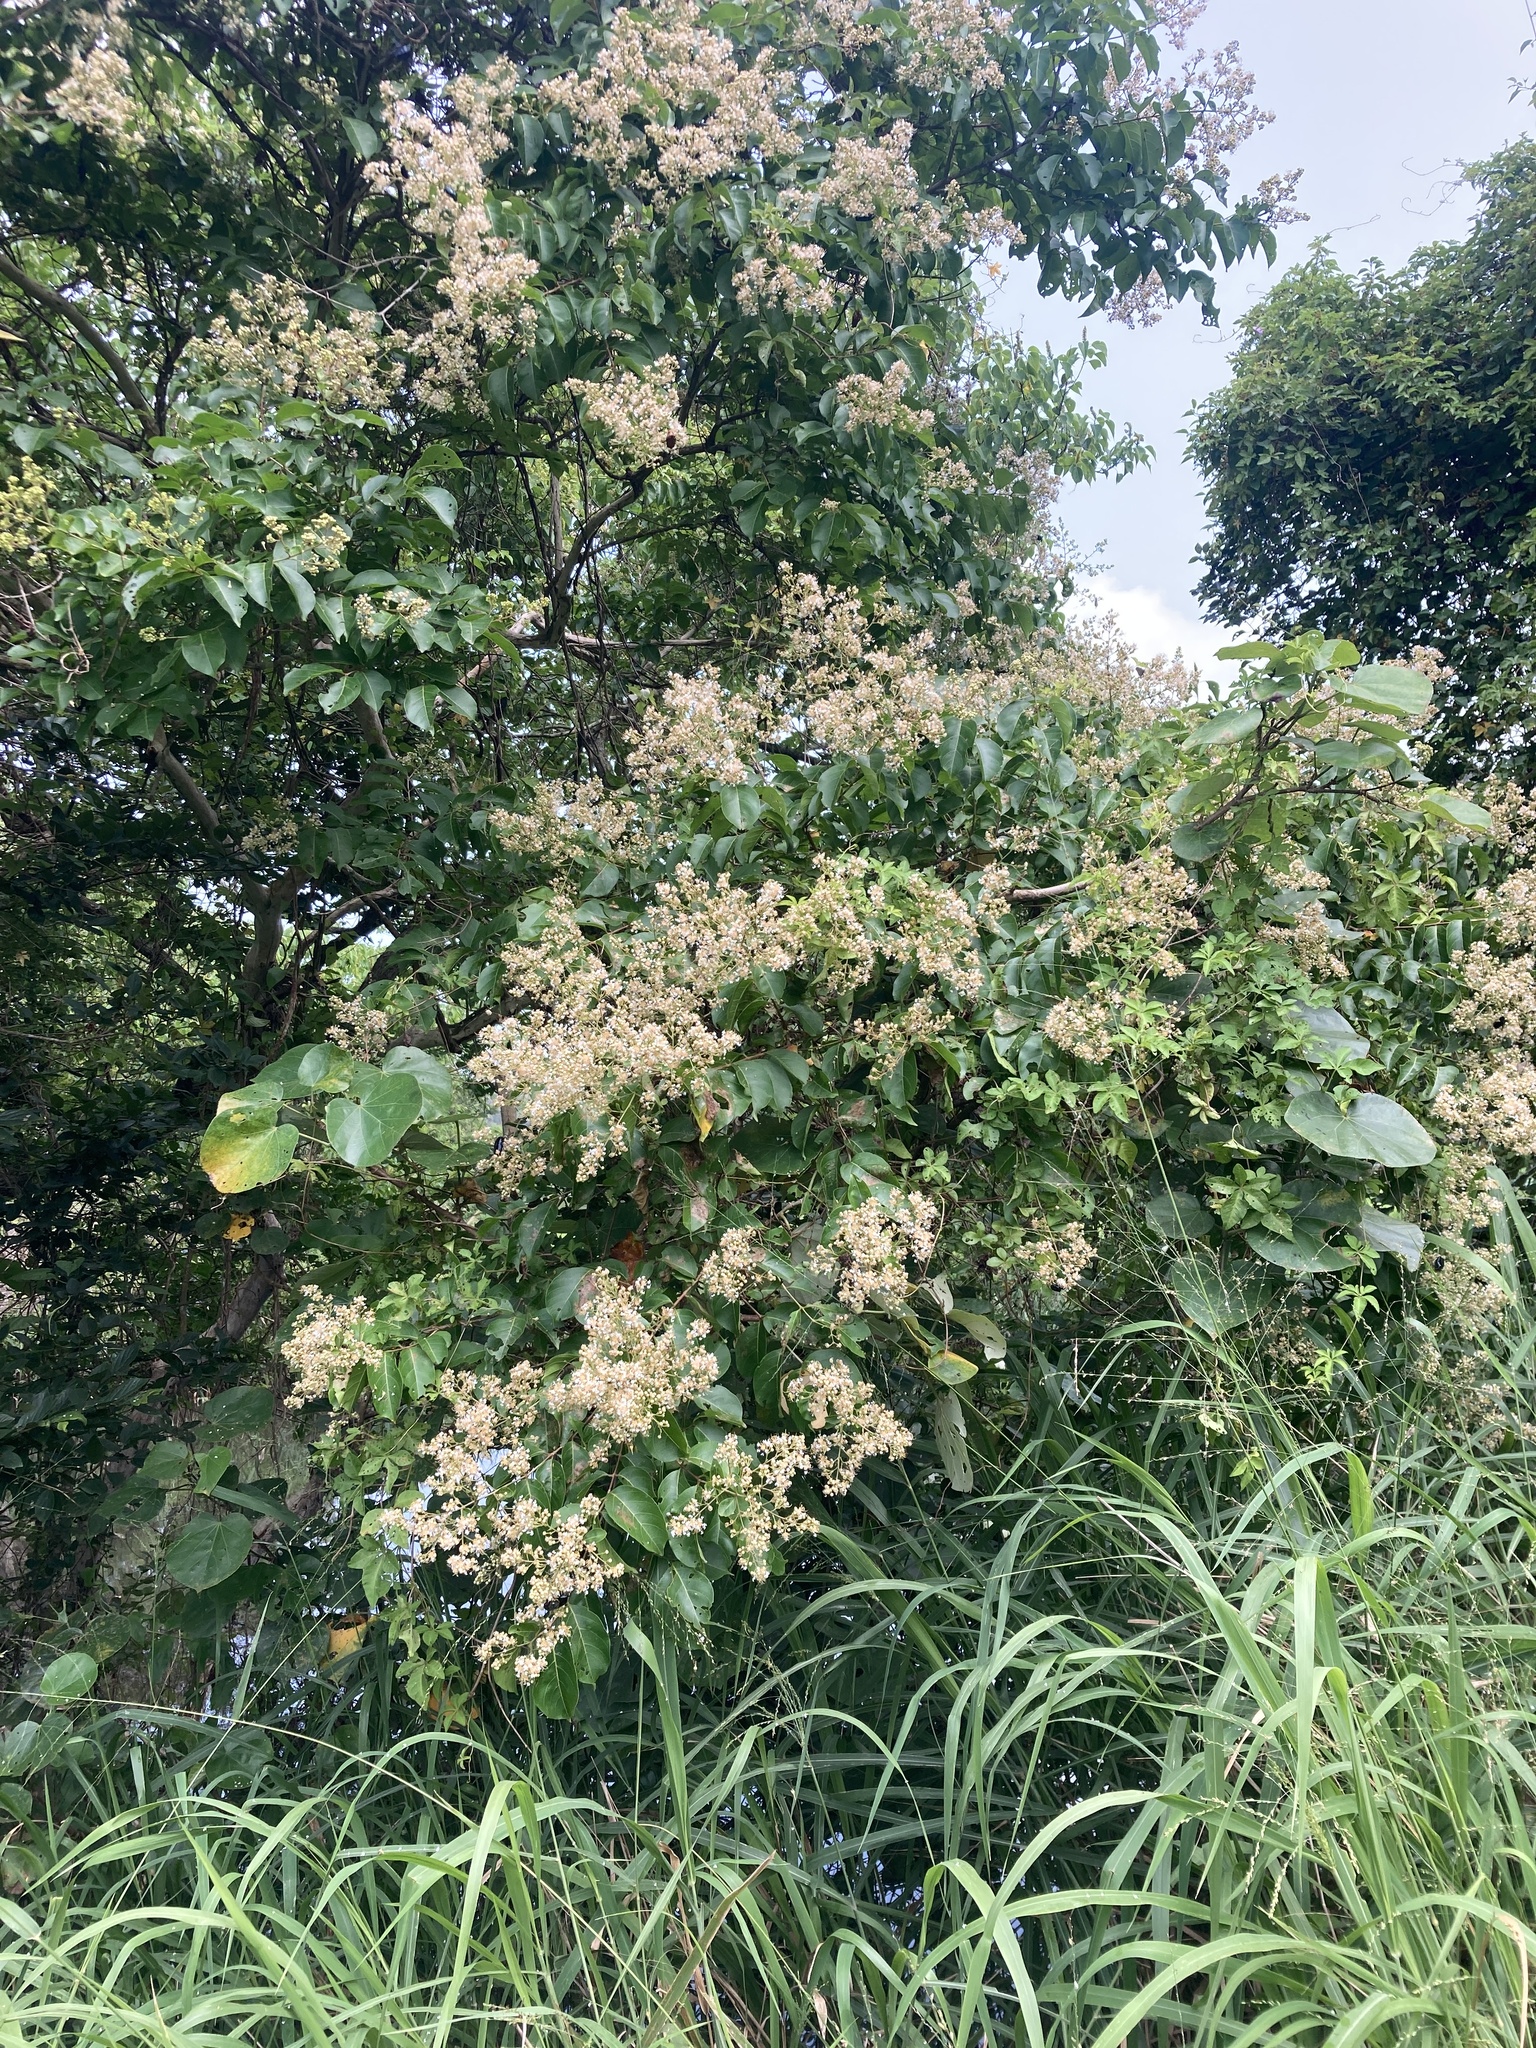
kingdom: Plantae
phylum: Tracheophyta
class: Magnoliopsida
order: Myrtales
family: Lythraceae
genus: Lagerstroemia
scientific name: Lagerstroemia subcostata
